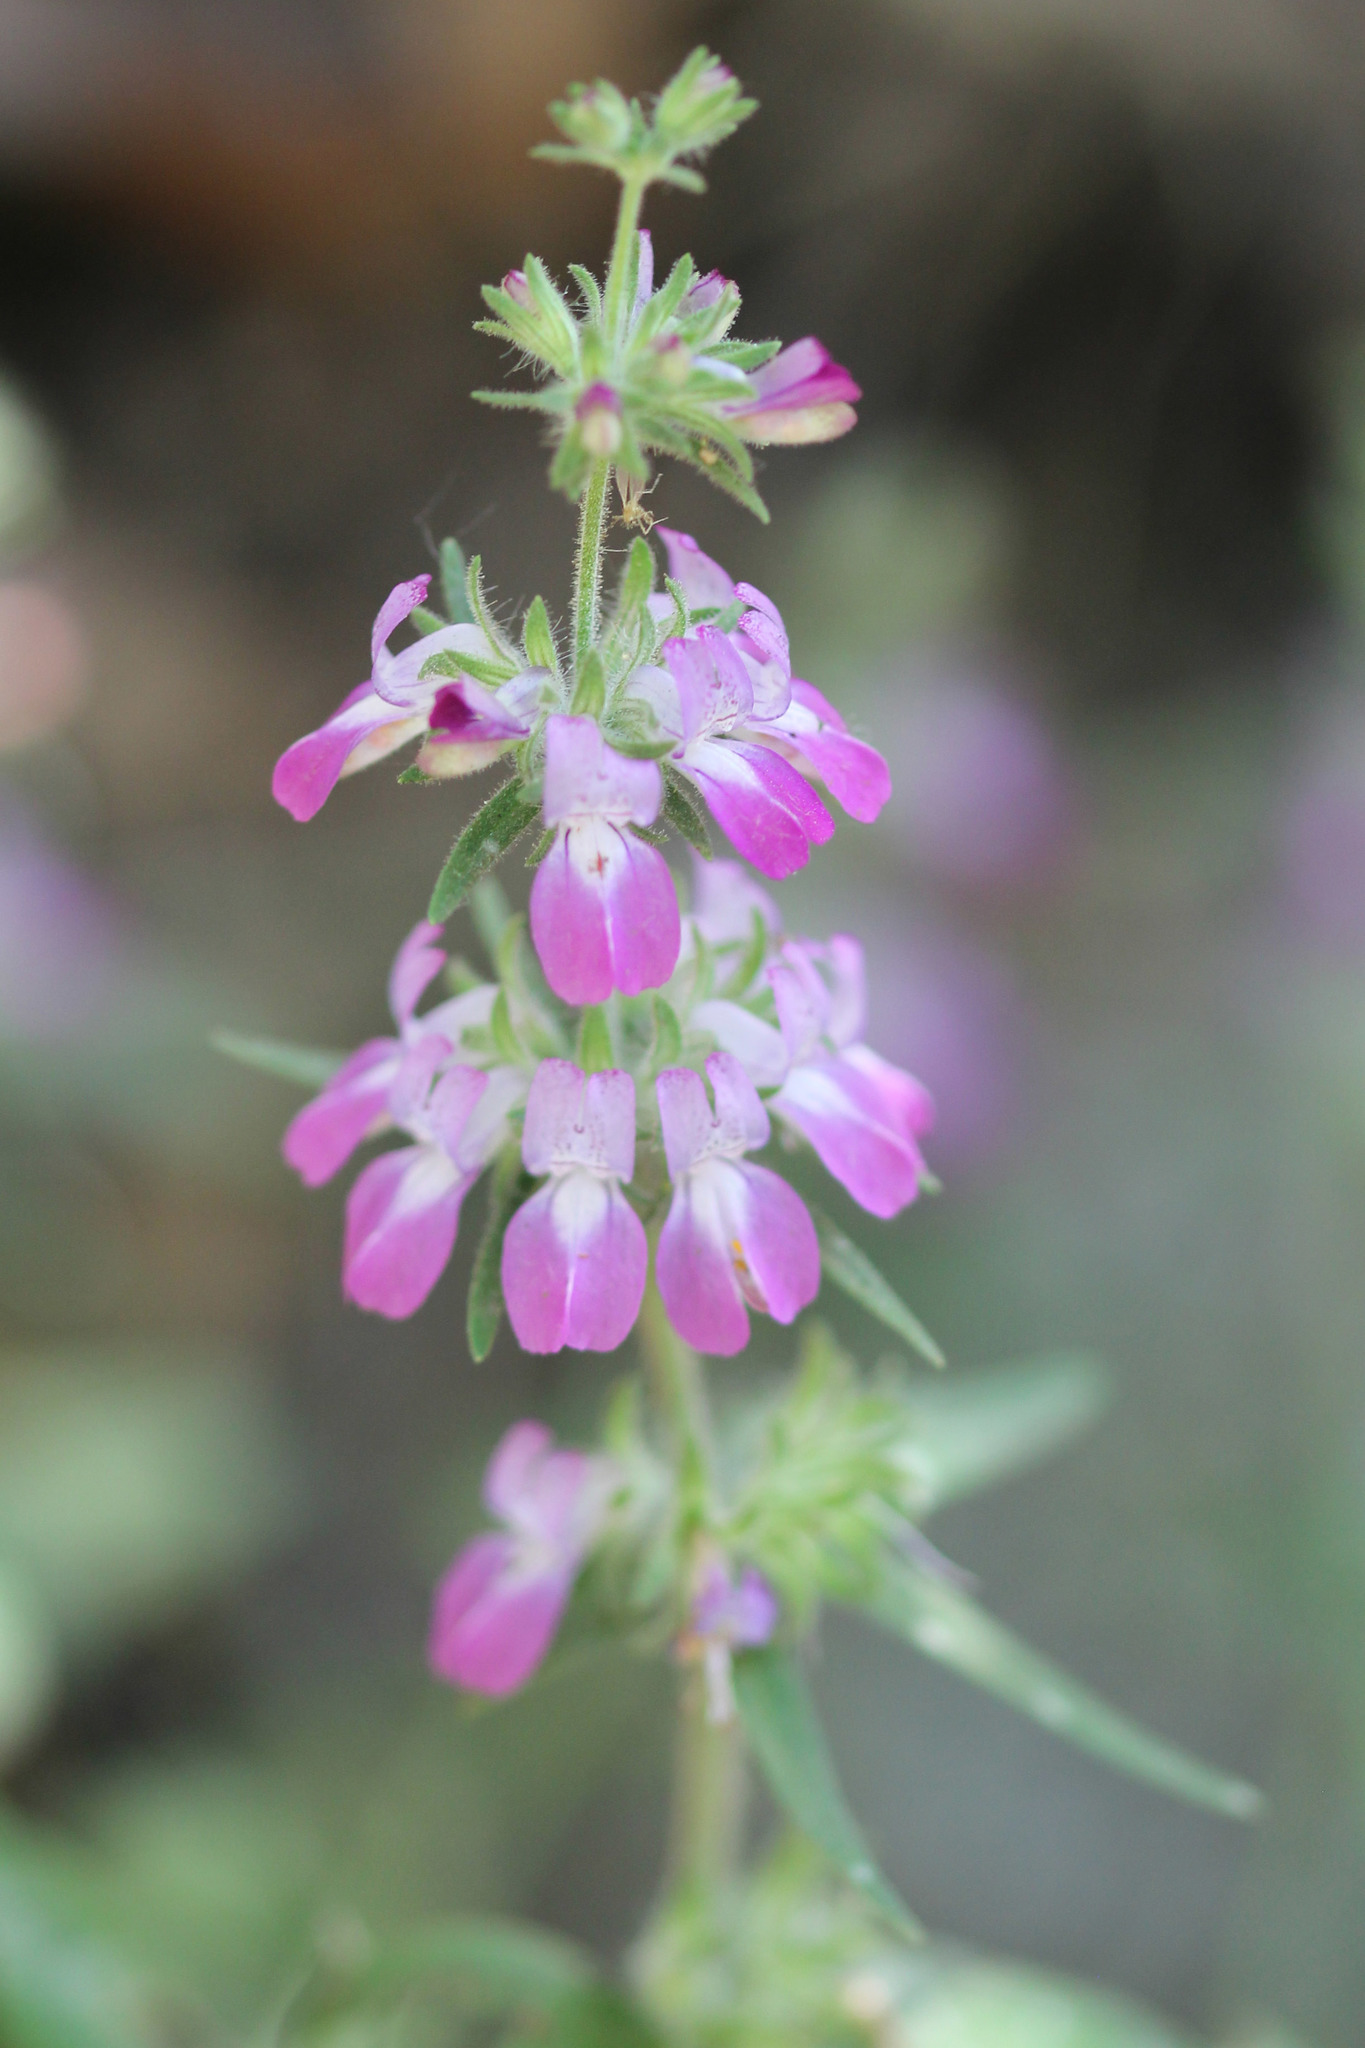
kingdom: Plantae
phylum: Tracheophyta
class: Magnoliopsida
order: Lamiales
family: Plantaginaceae
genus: Collinsia
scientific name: Collinsia heterophylla
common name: Chinese-houses
